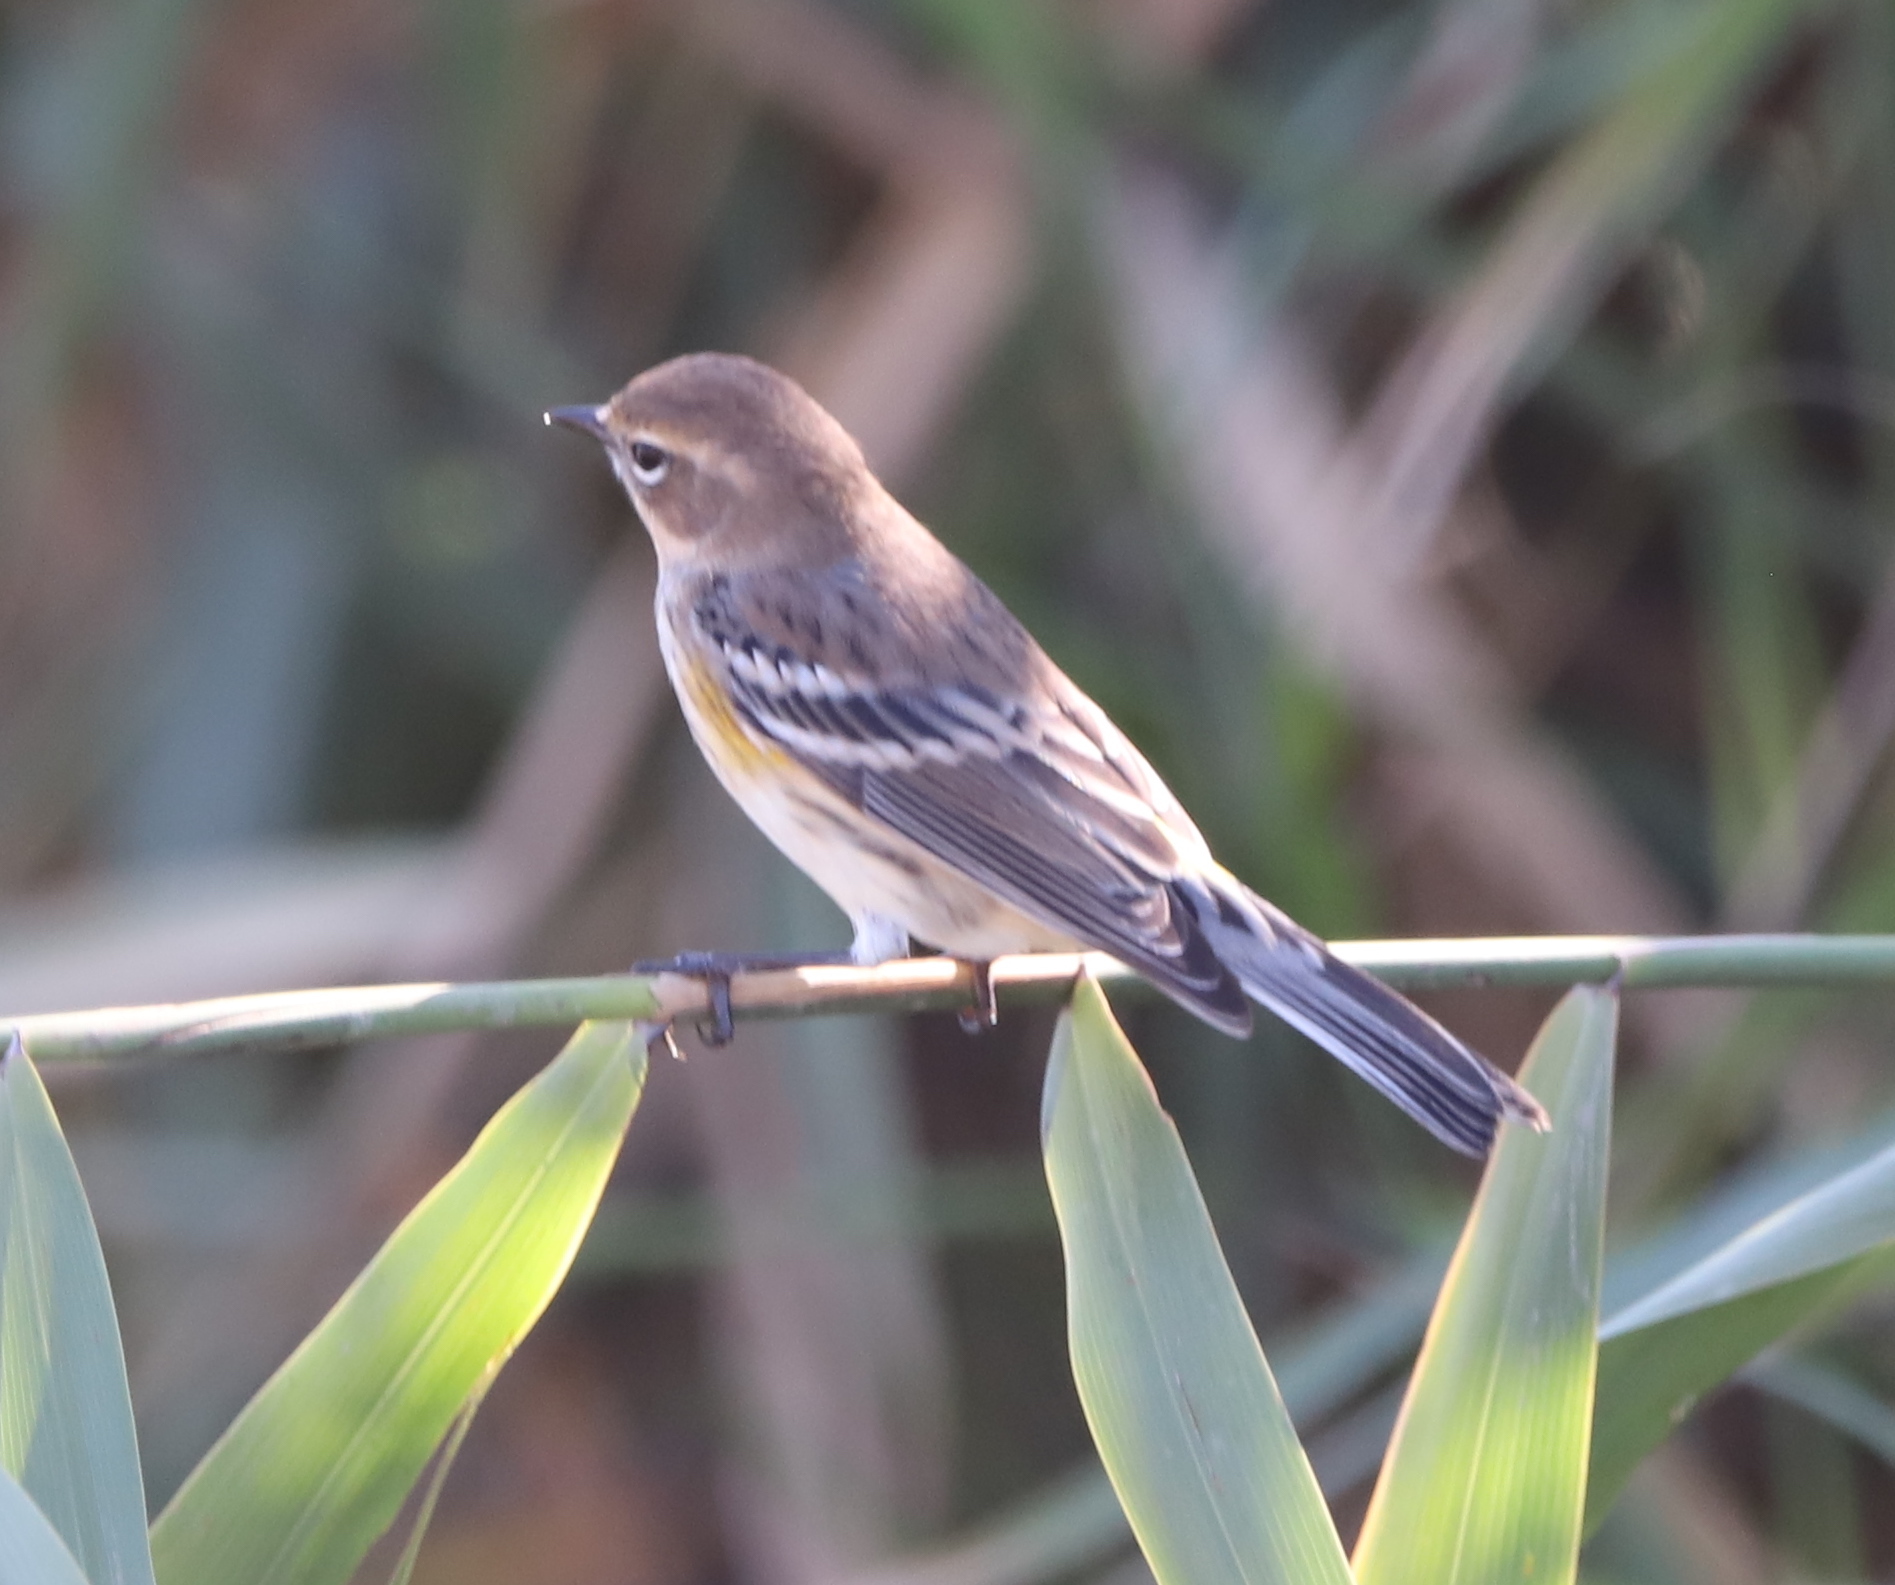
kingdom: Animalia
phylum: Chordata
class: Aves
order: Passeriformes
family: Parulidae
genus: Setophaga
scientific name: Setophaga coronata
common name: Myrtle warbler
